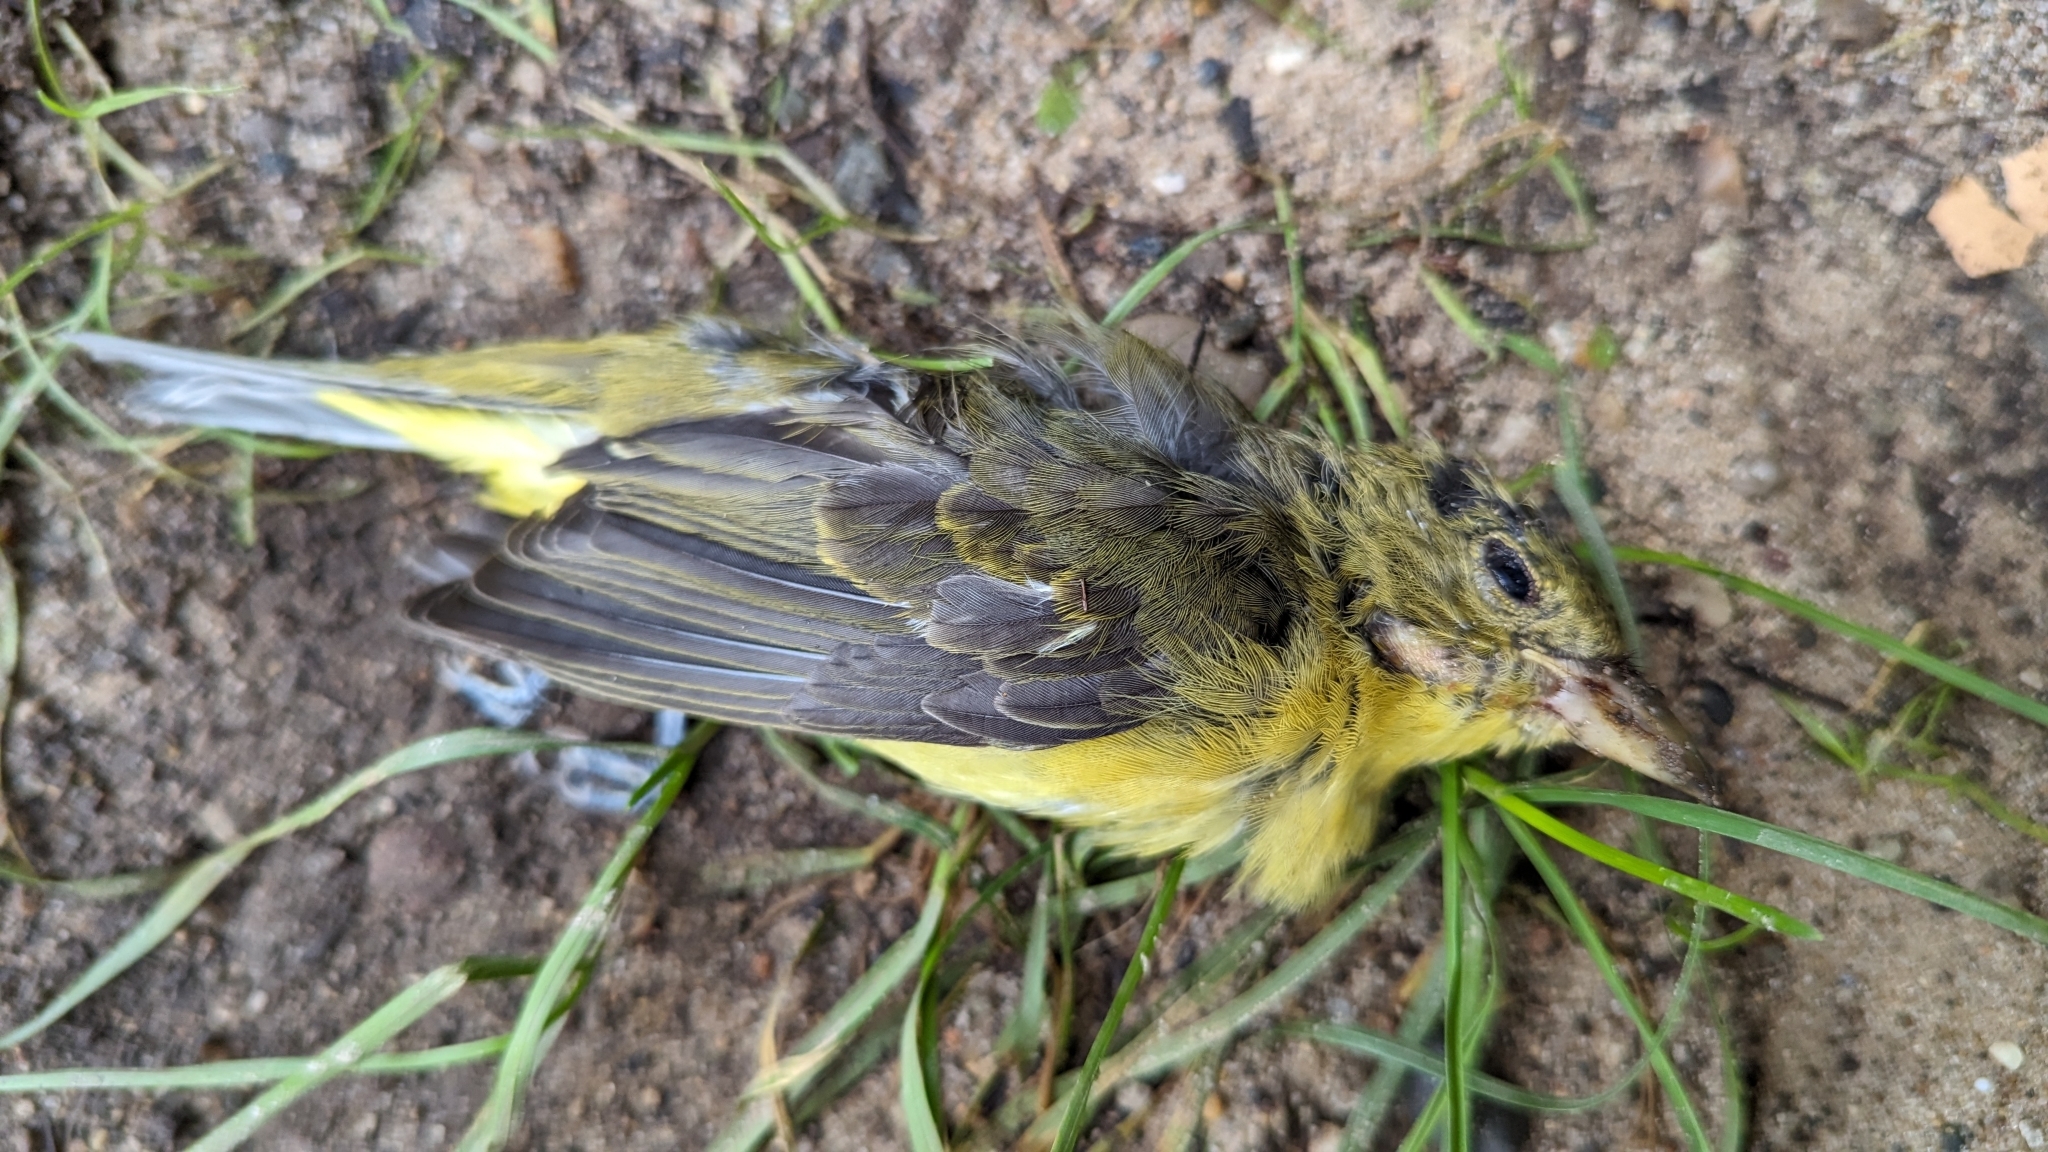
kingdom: Animalia
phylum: Chordata
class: Aves
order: Passeriformes
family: Cardinalidae
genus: Piranga
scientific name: Piranga olivacea
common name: Scarlet tanager
